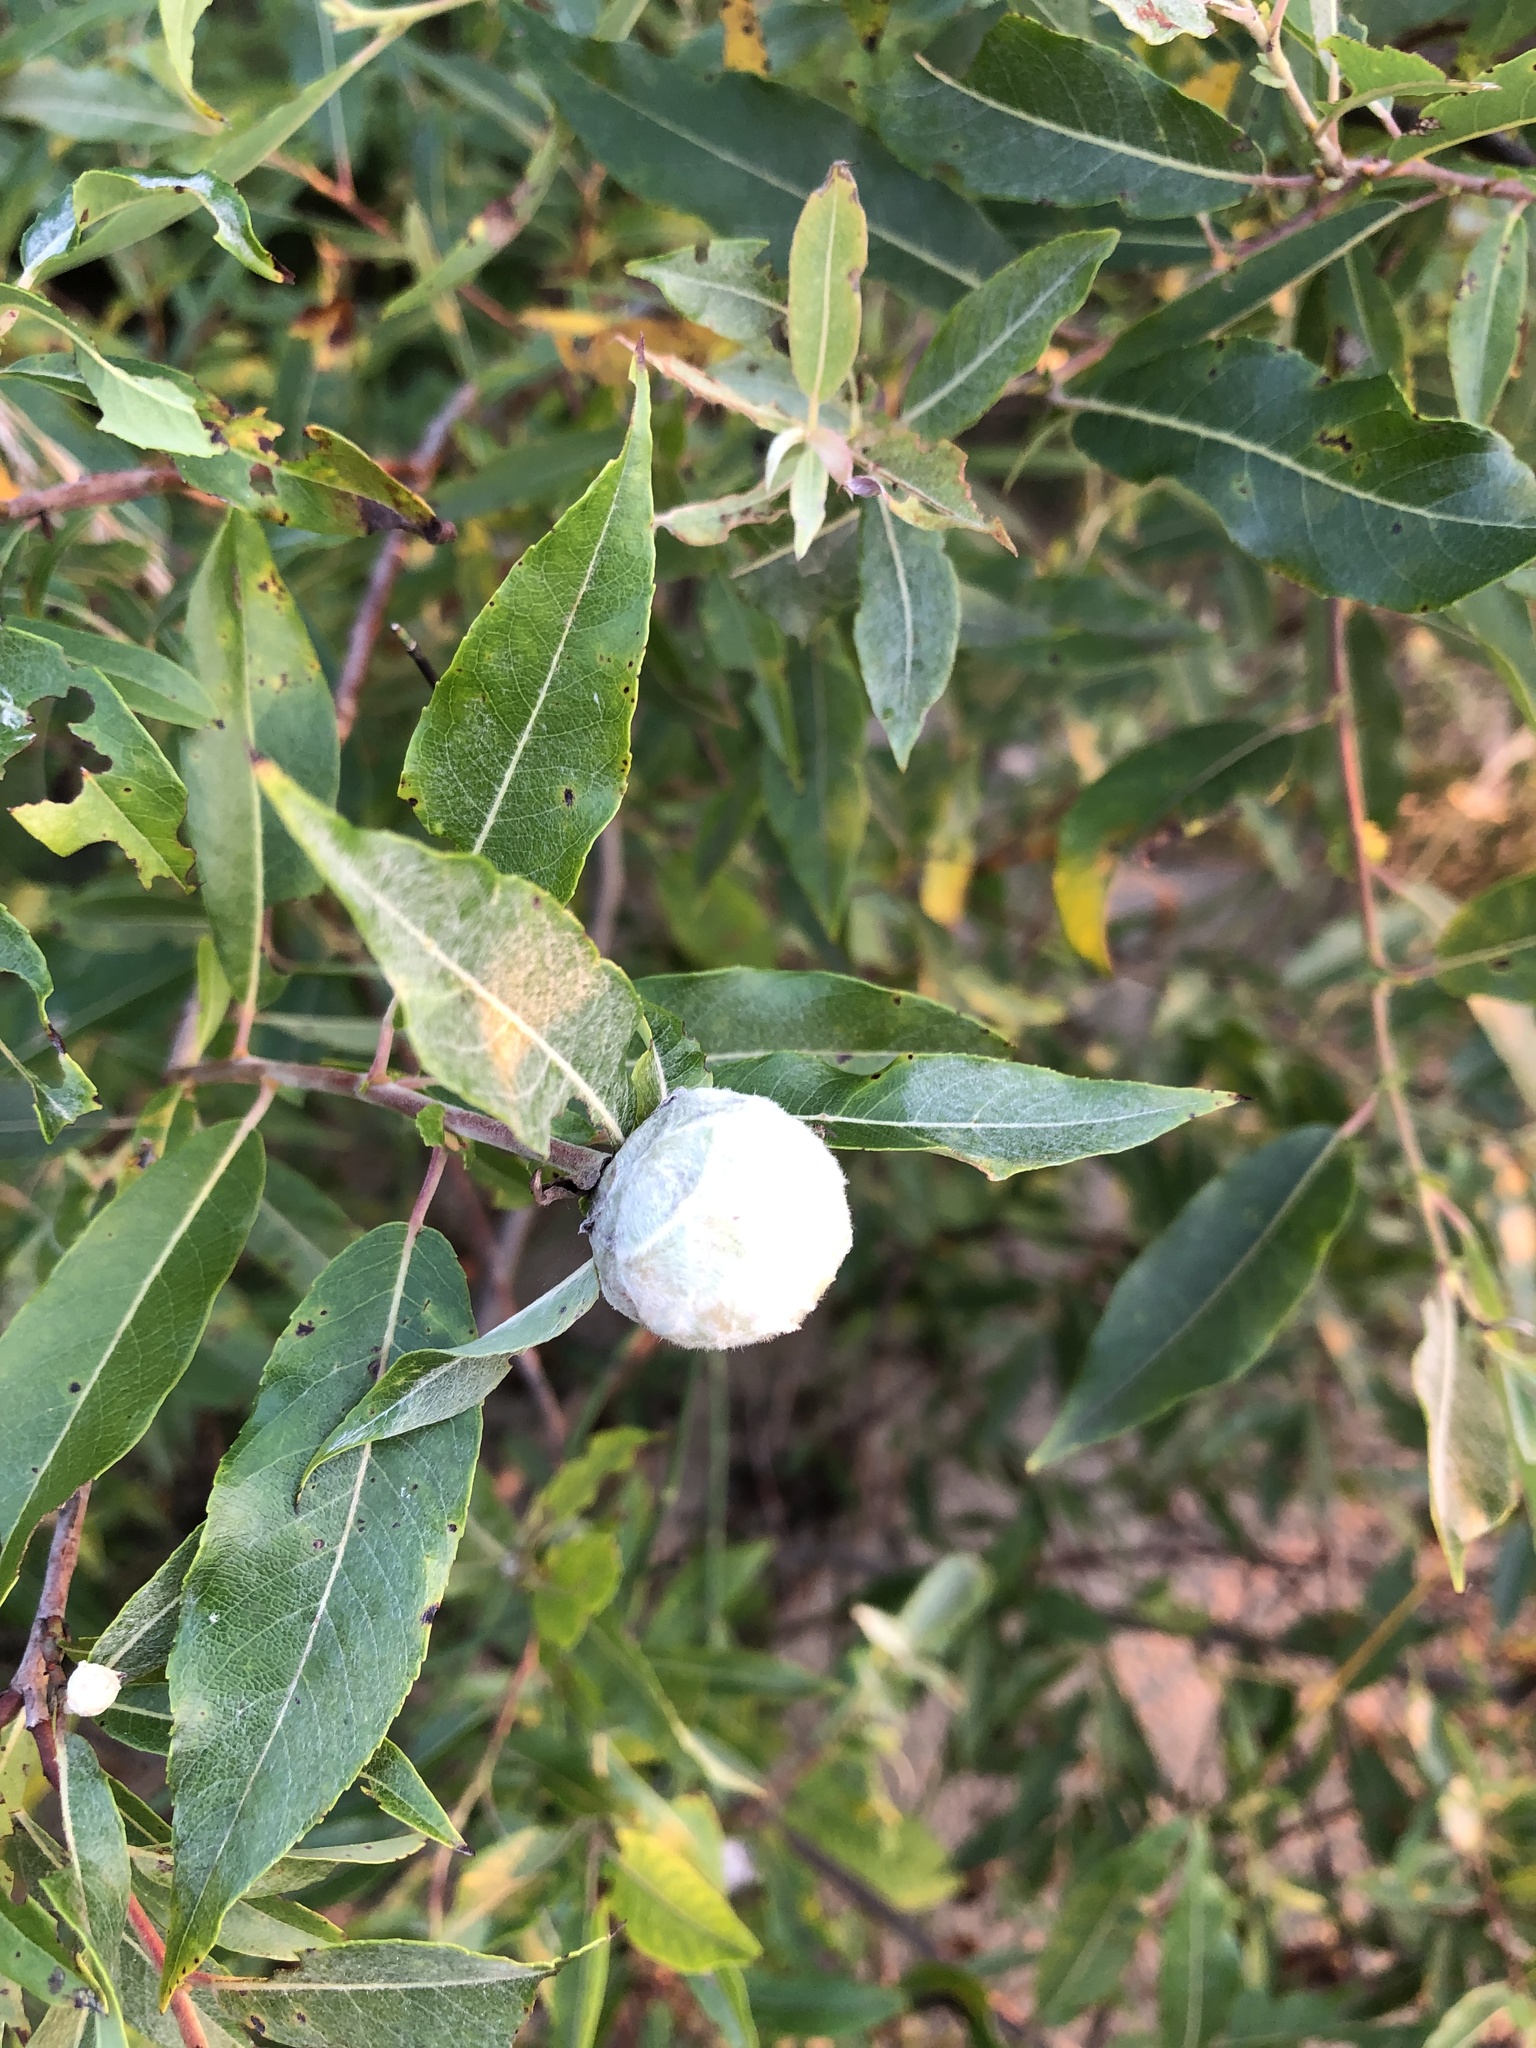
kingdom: Animalia
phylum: Arthropoda
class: Insecta
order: Diptera
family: Cecidomyiidae
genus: Rabdophaga
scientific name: Rabdophaga strobiloides
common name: Willow pinecone gall midge
